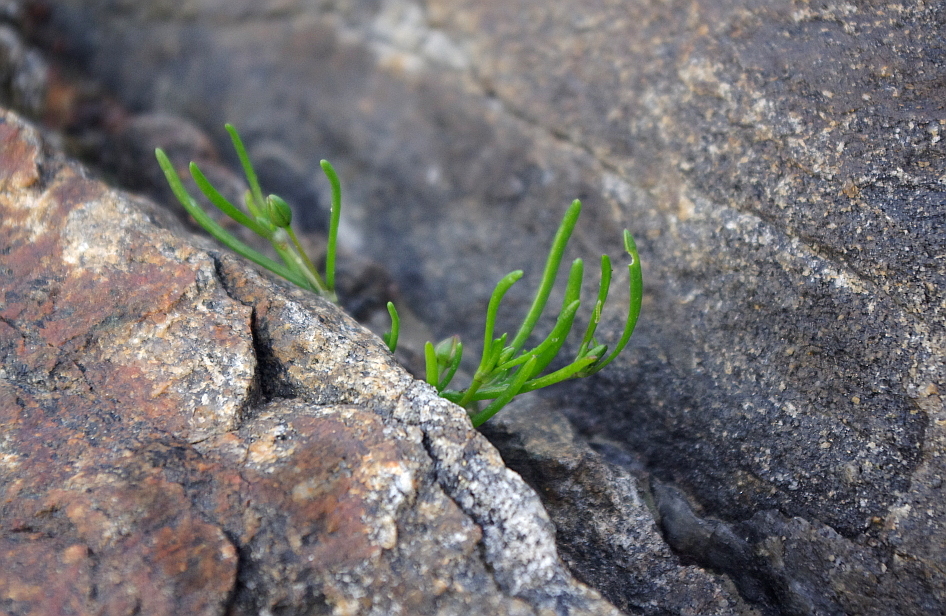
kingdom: Plantae
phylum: Tracheophyta
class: Magnoliopsida
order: Caryophyllales
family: Caryophyllaceae
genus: Spergularia
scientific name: Spergularia marina
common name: Lesser sea-spurrey
